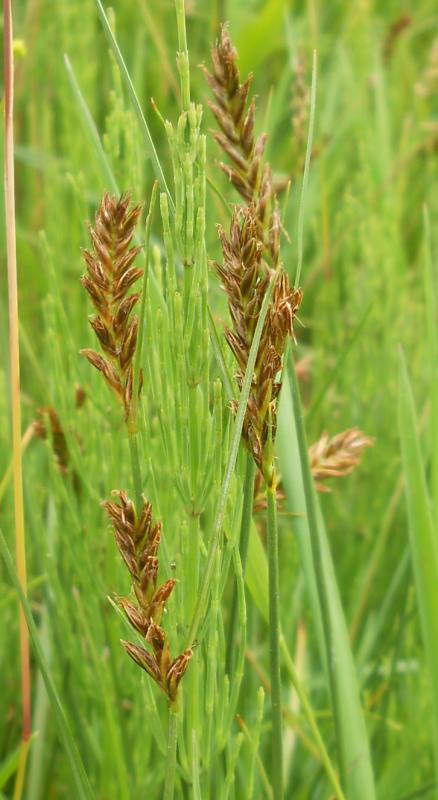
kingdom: Plantae
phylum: Tracheophyta
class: Liliopsida
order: Poales
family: Cyperaceae
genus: Blysmus
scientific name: Blysmus compressus
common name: Flat-sedge
